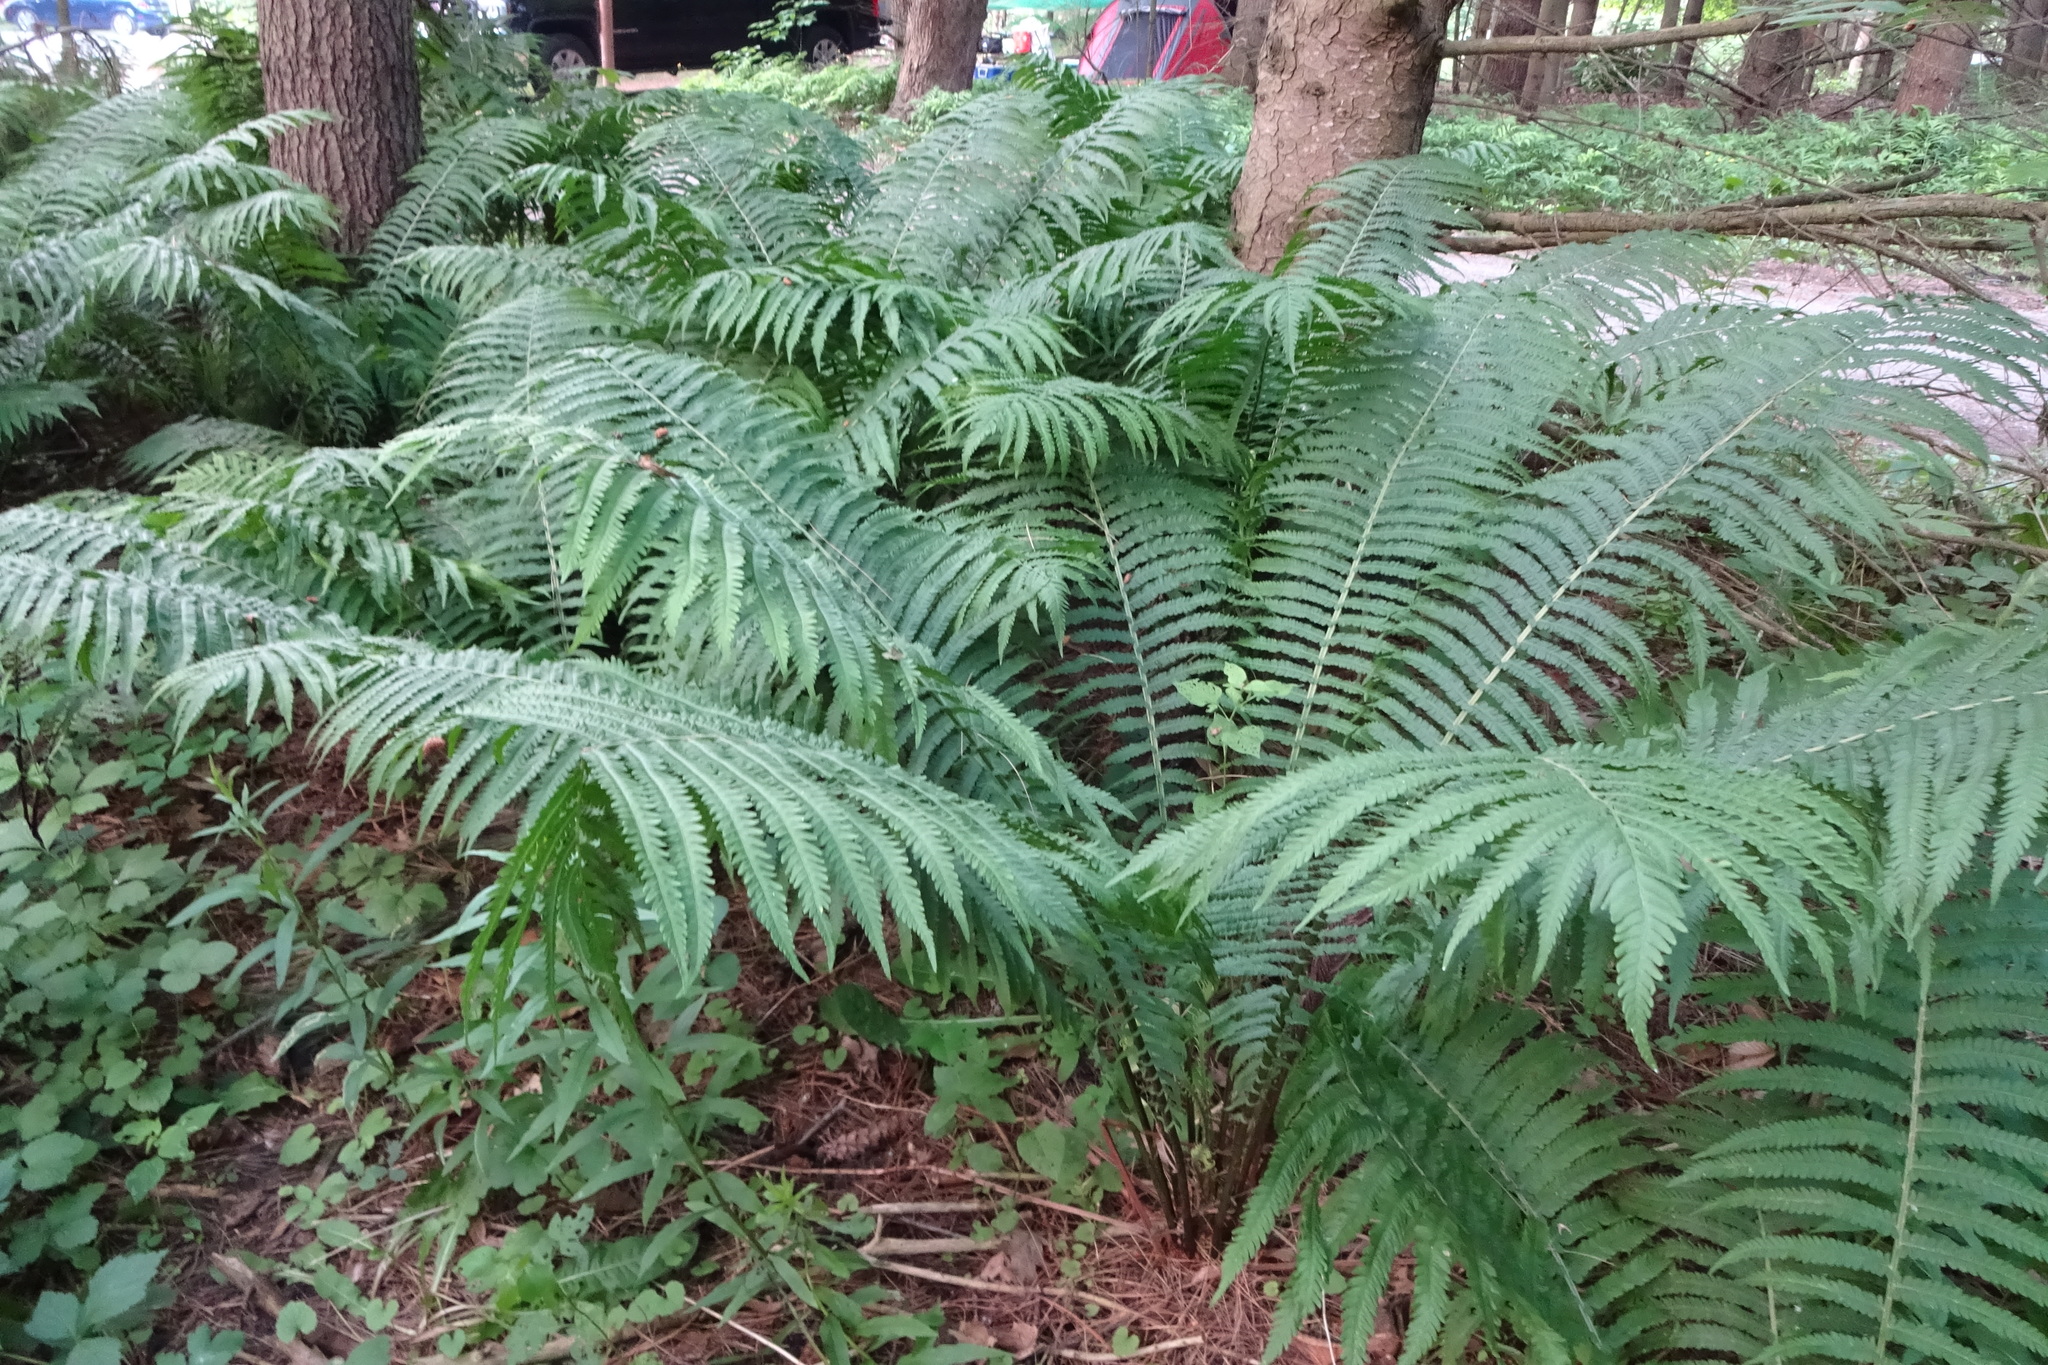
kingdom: Plantae
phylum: Tracheophyta
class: Polypodiopsida
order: Polypodiales
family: Onocleaceae
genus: Matteuccia
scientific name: Matteuccia struthiopteris
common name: Ostrich fern
